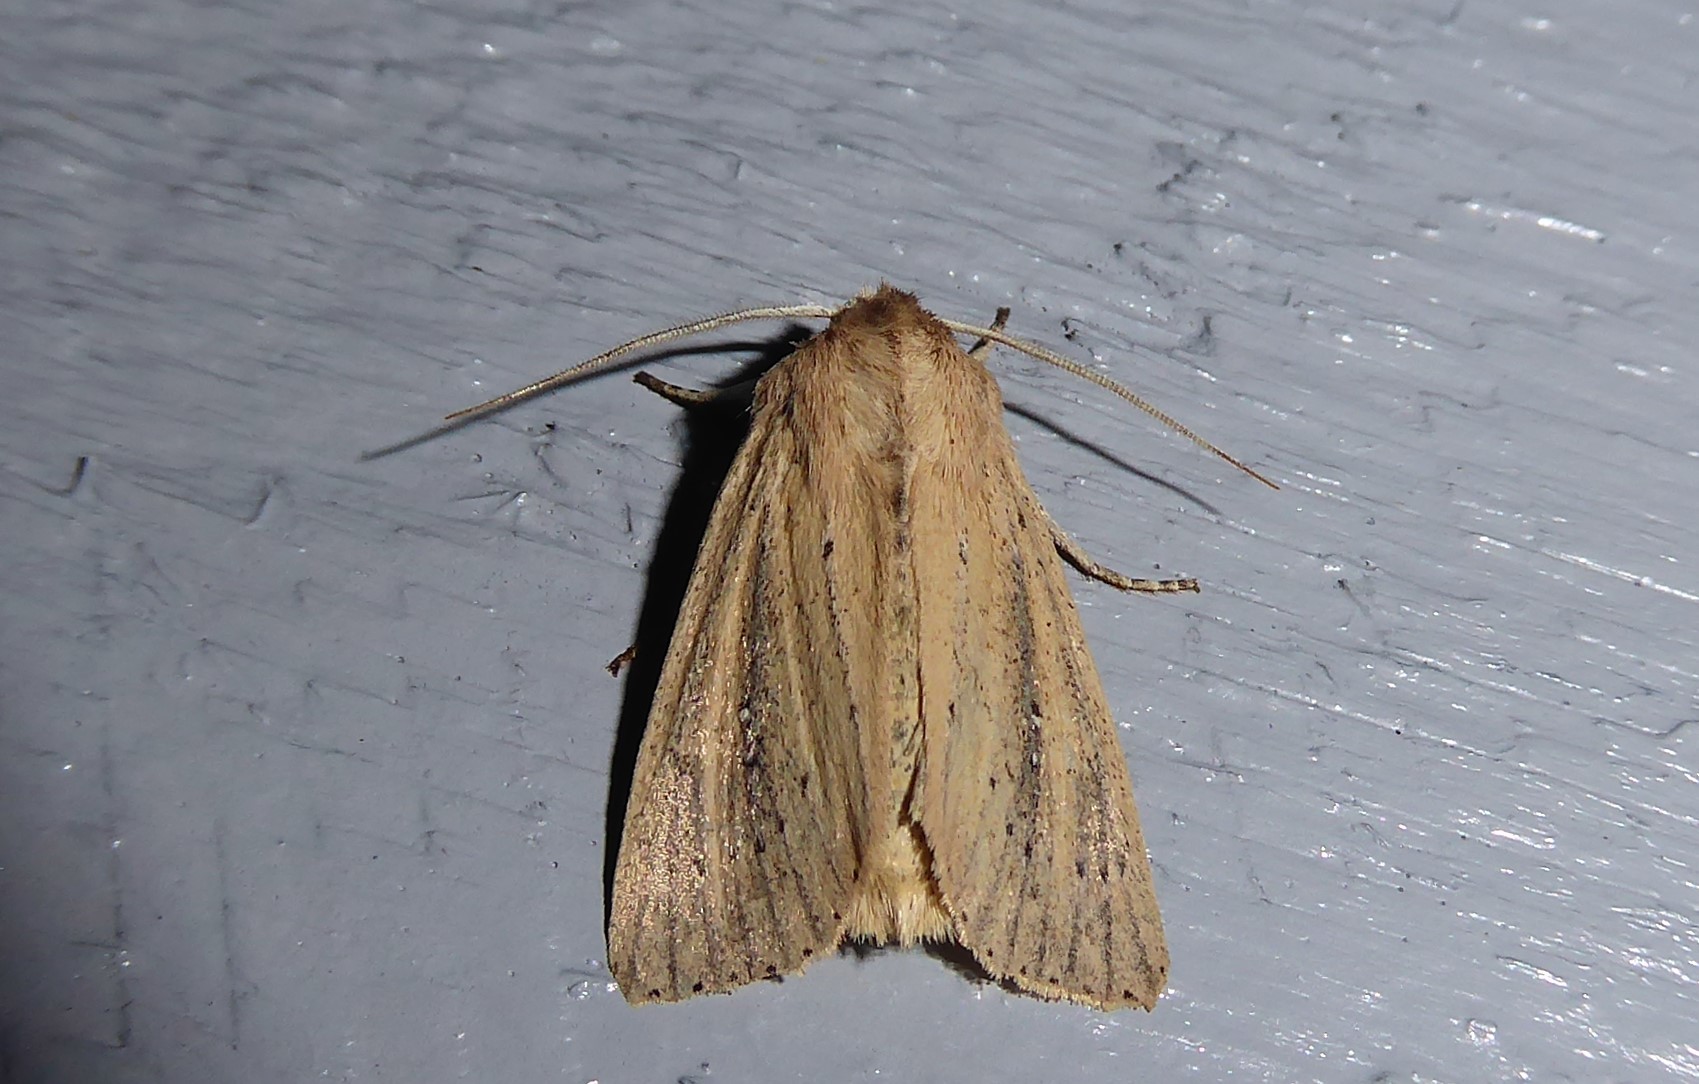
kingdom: Animalia
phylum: Arthropoda
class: Insecta
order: Lepidoptera
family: Noctuidae
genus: Ichneutica
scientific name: Ichneutica
